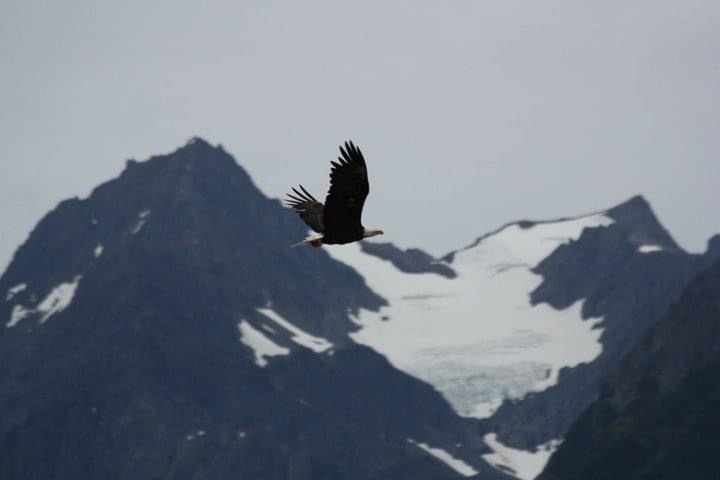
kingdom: Animalia
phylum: Chordata
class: Aves
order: Accipitriformes
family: Accipitridae
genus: Haliaeetus
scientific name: Haliaeetus leucocephalus
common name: Bald eagle
